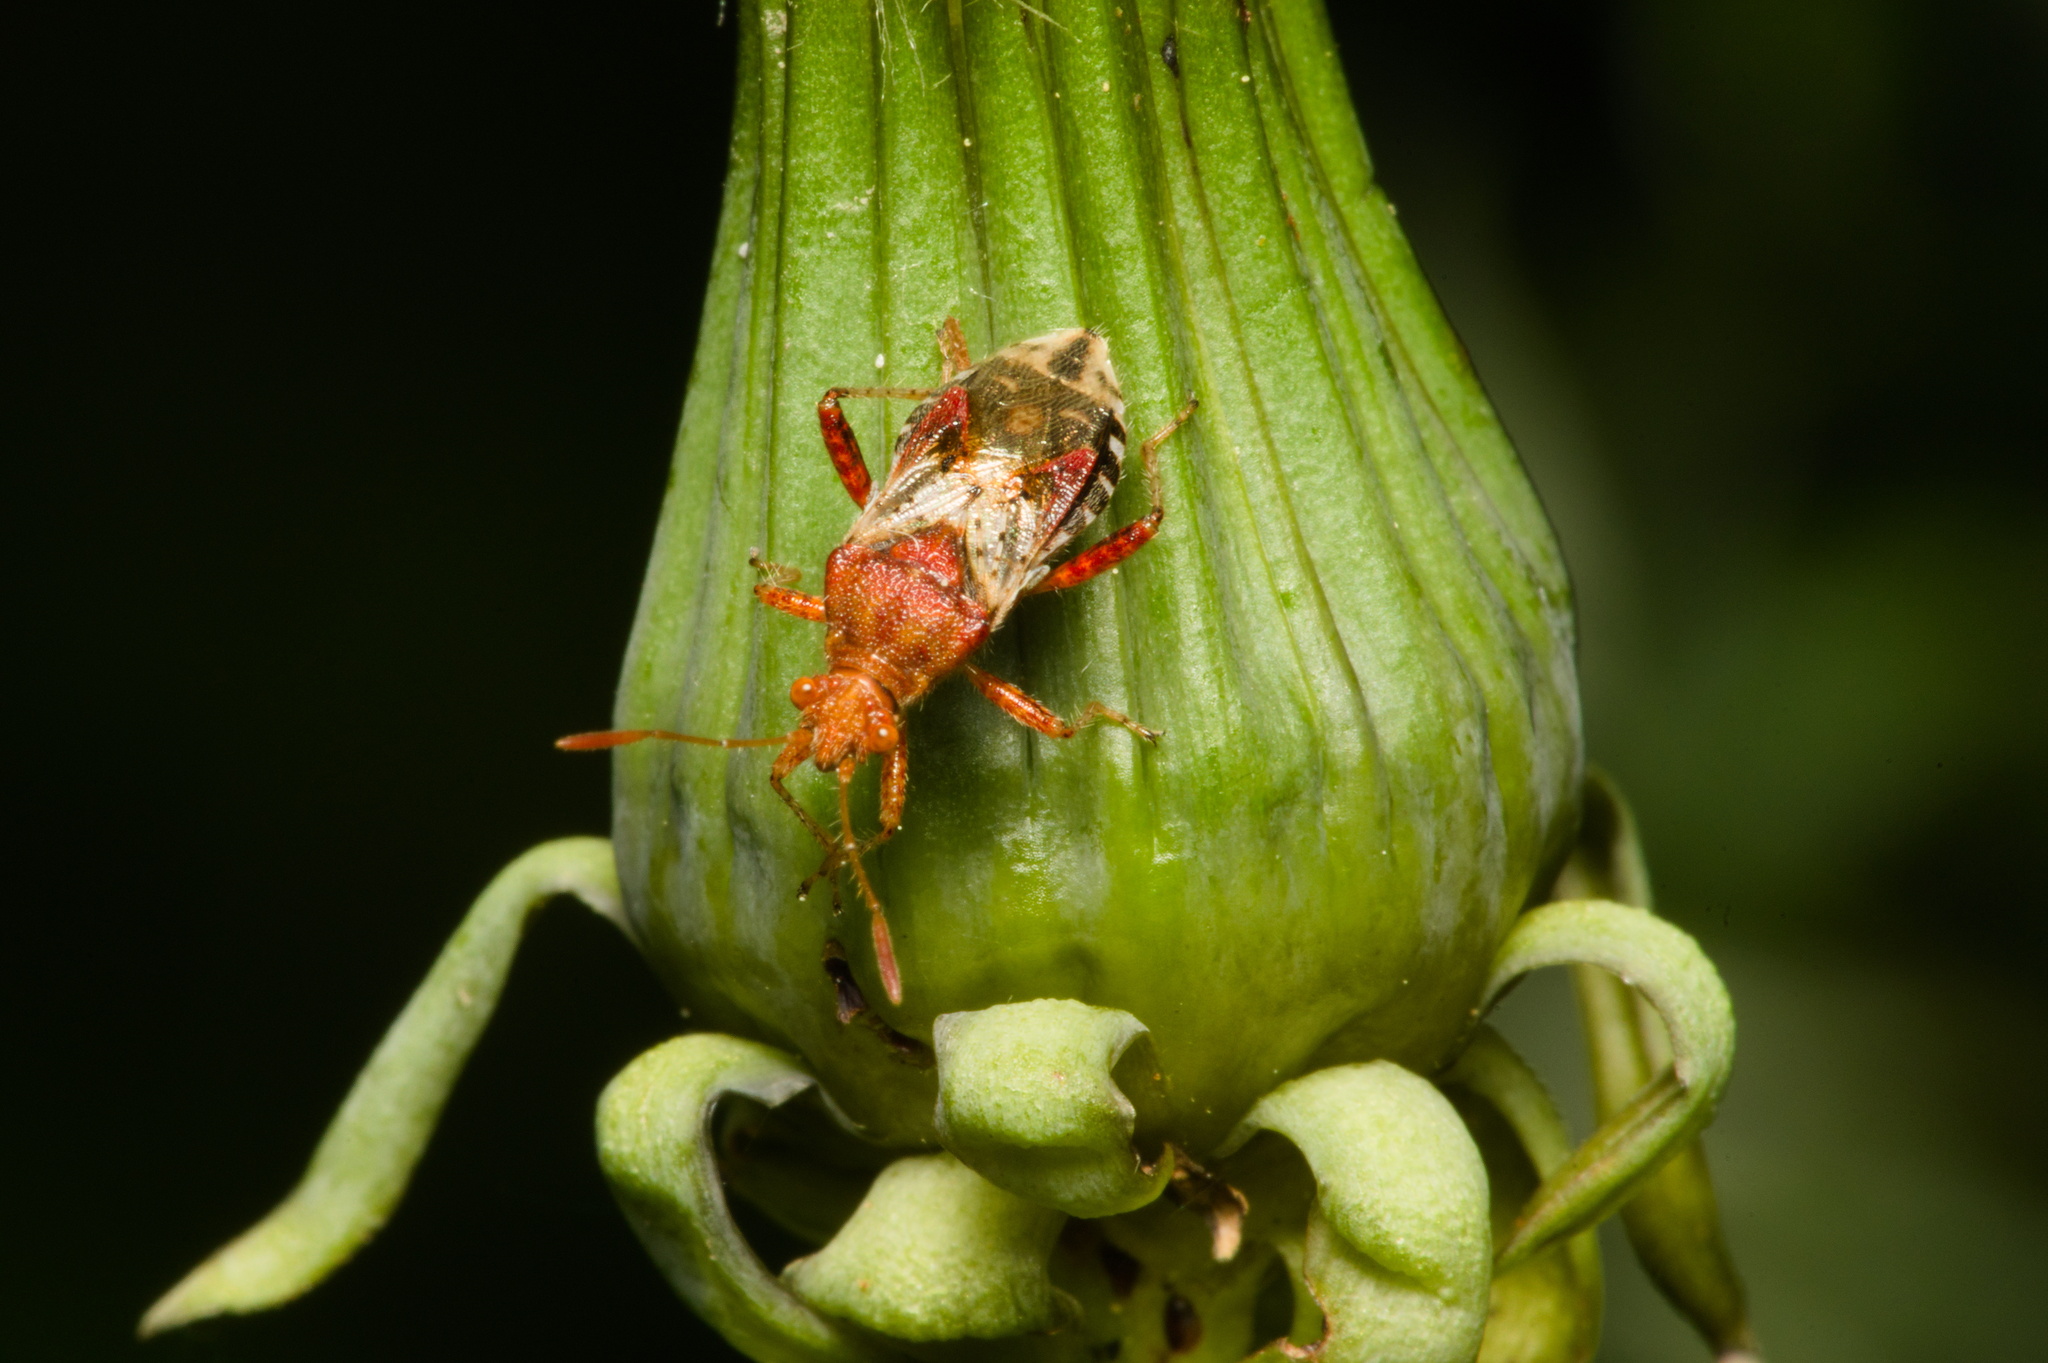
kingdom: Animalia
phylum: Arthropoda
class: Insecta
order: Hemiptera
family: Rhopalidae
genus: Rhopalus
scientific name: Rhopalus subrufus
